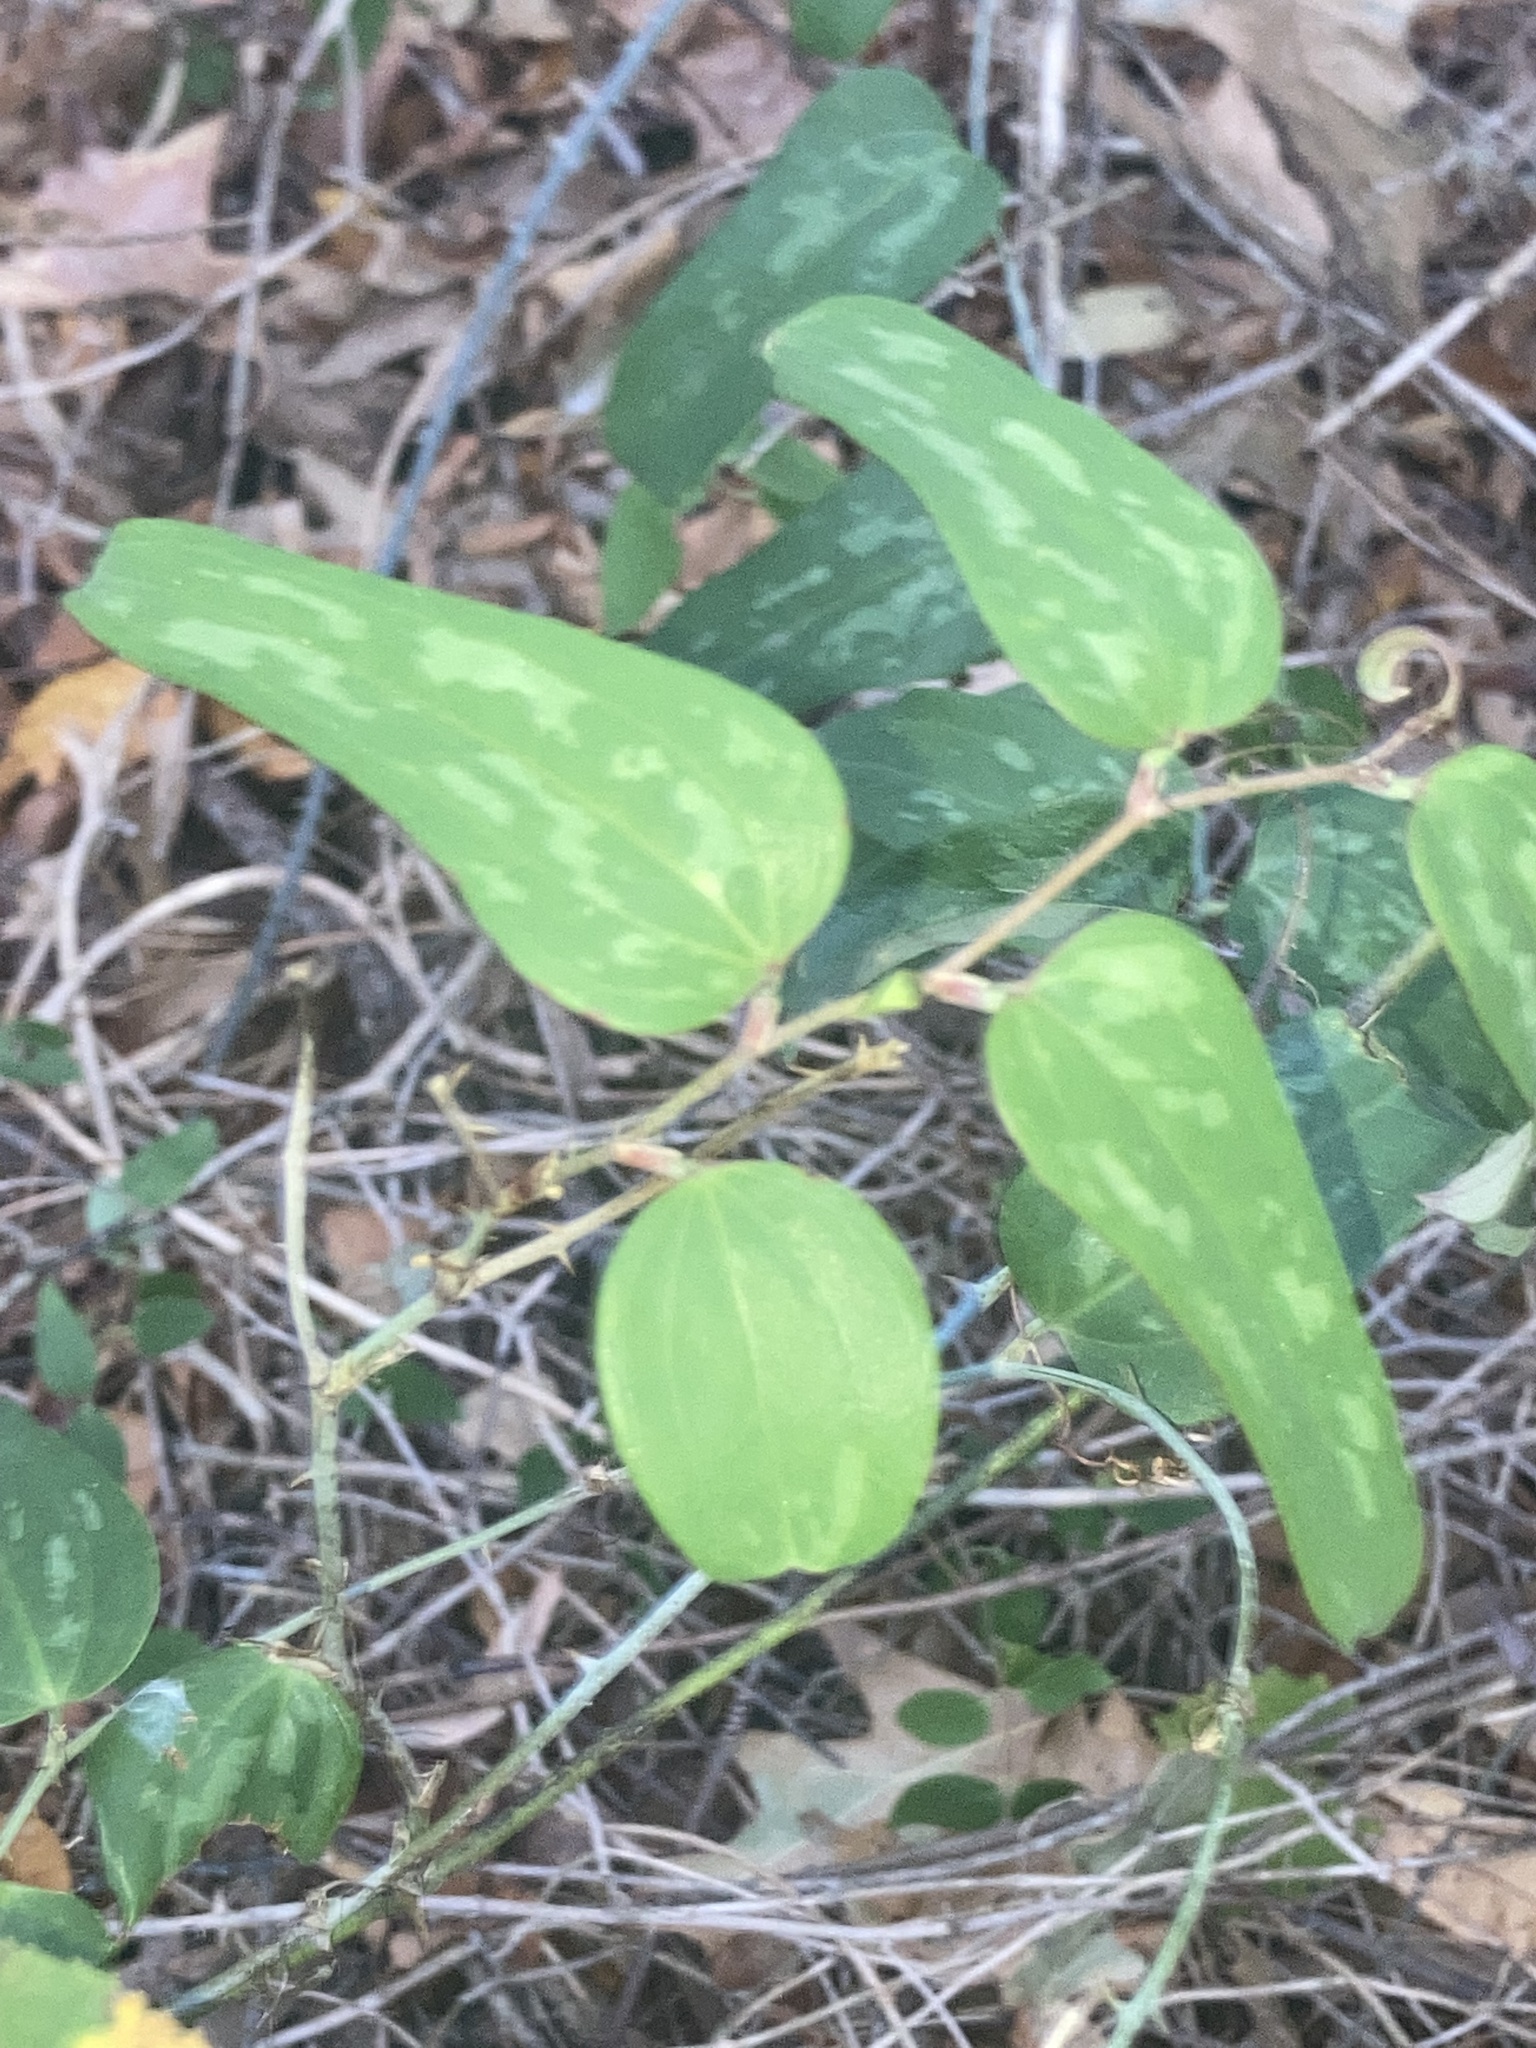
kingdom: Plantae
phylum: Tracheophyta
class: Liliopsida
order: Liliales
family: Smilacaceae
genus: Smilax
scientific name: Smilax bona-nox
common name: Catbrier
